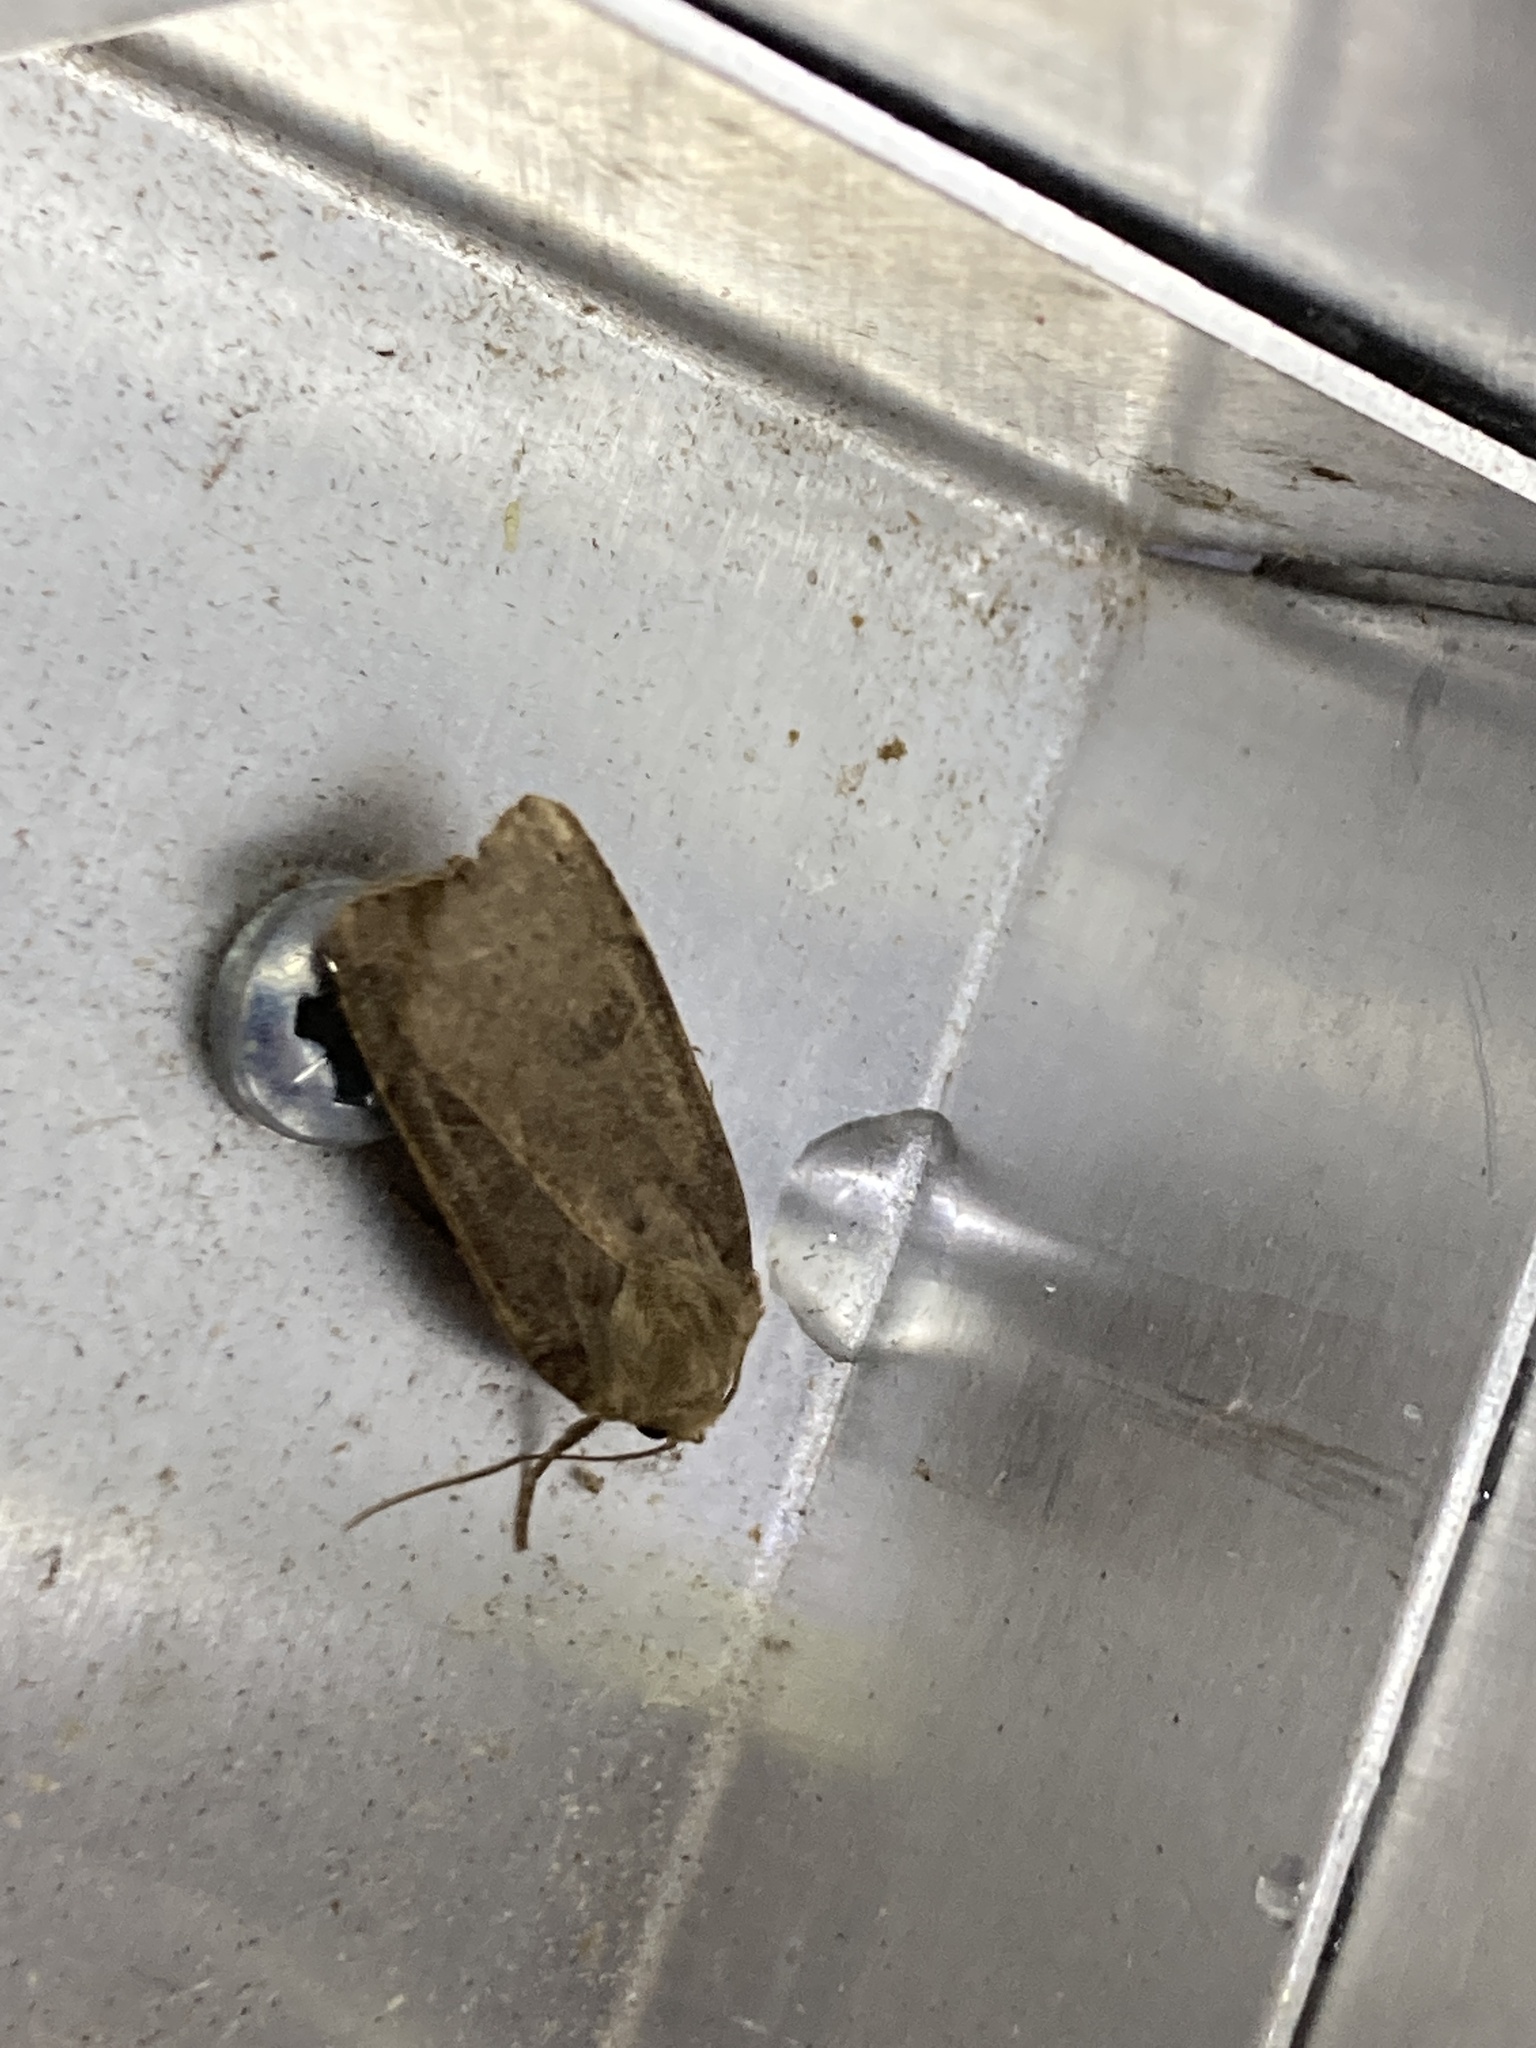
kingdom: Animalia
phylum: Arthropoda
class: Insecta
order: Lepidoptera
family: Noctuidae
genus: Noctua
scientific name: Noctua comes
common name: Lesser yellow underwing
